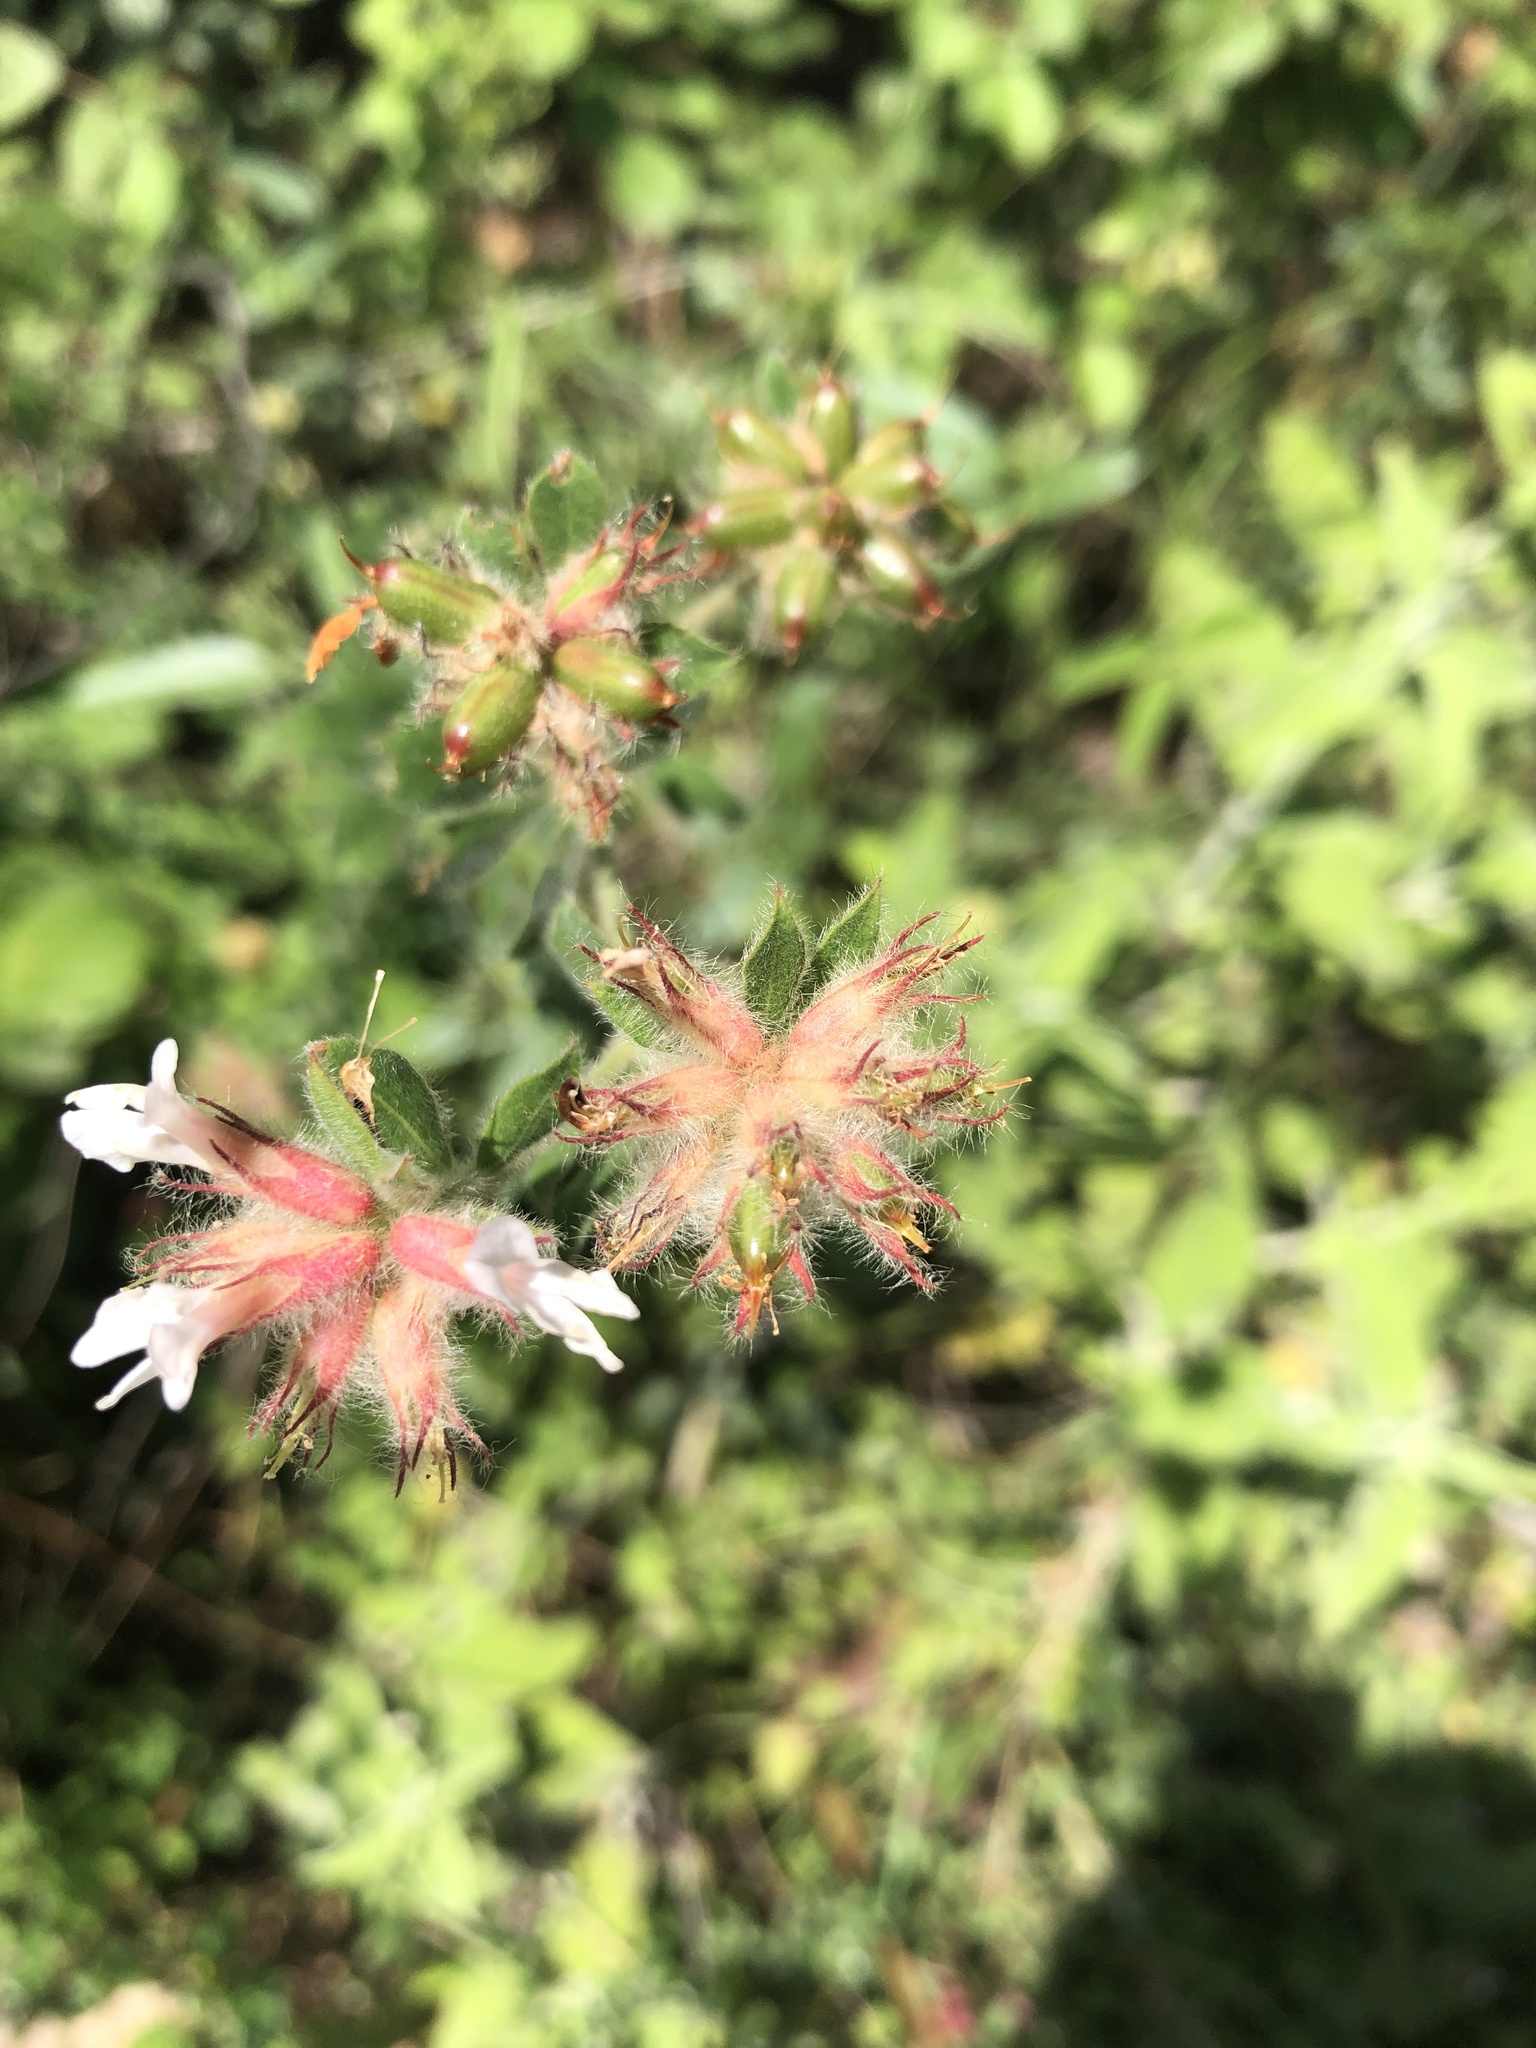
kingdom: Plantae
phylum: Tracheophyta
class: Magnoliopsida
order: Fabales
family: Fabaceae
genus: Lotus
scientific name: Lotus hirsutus
